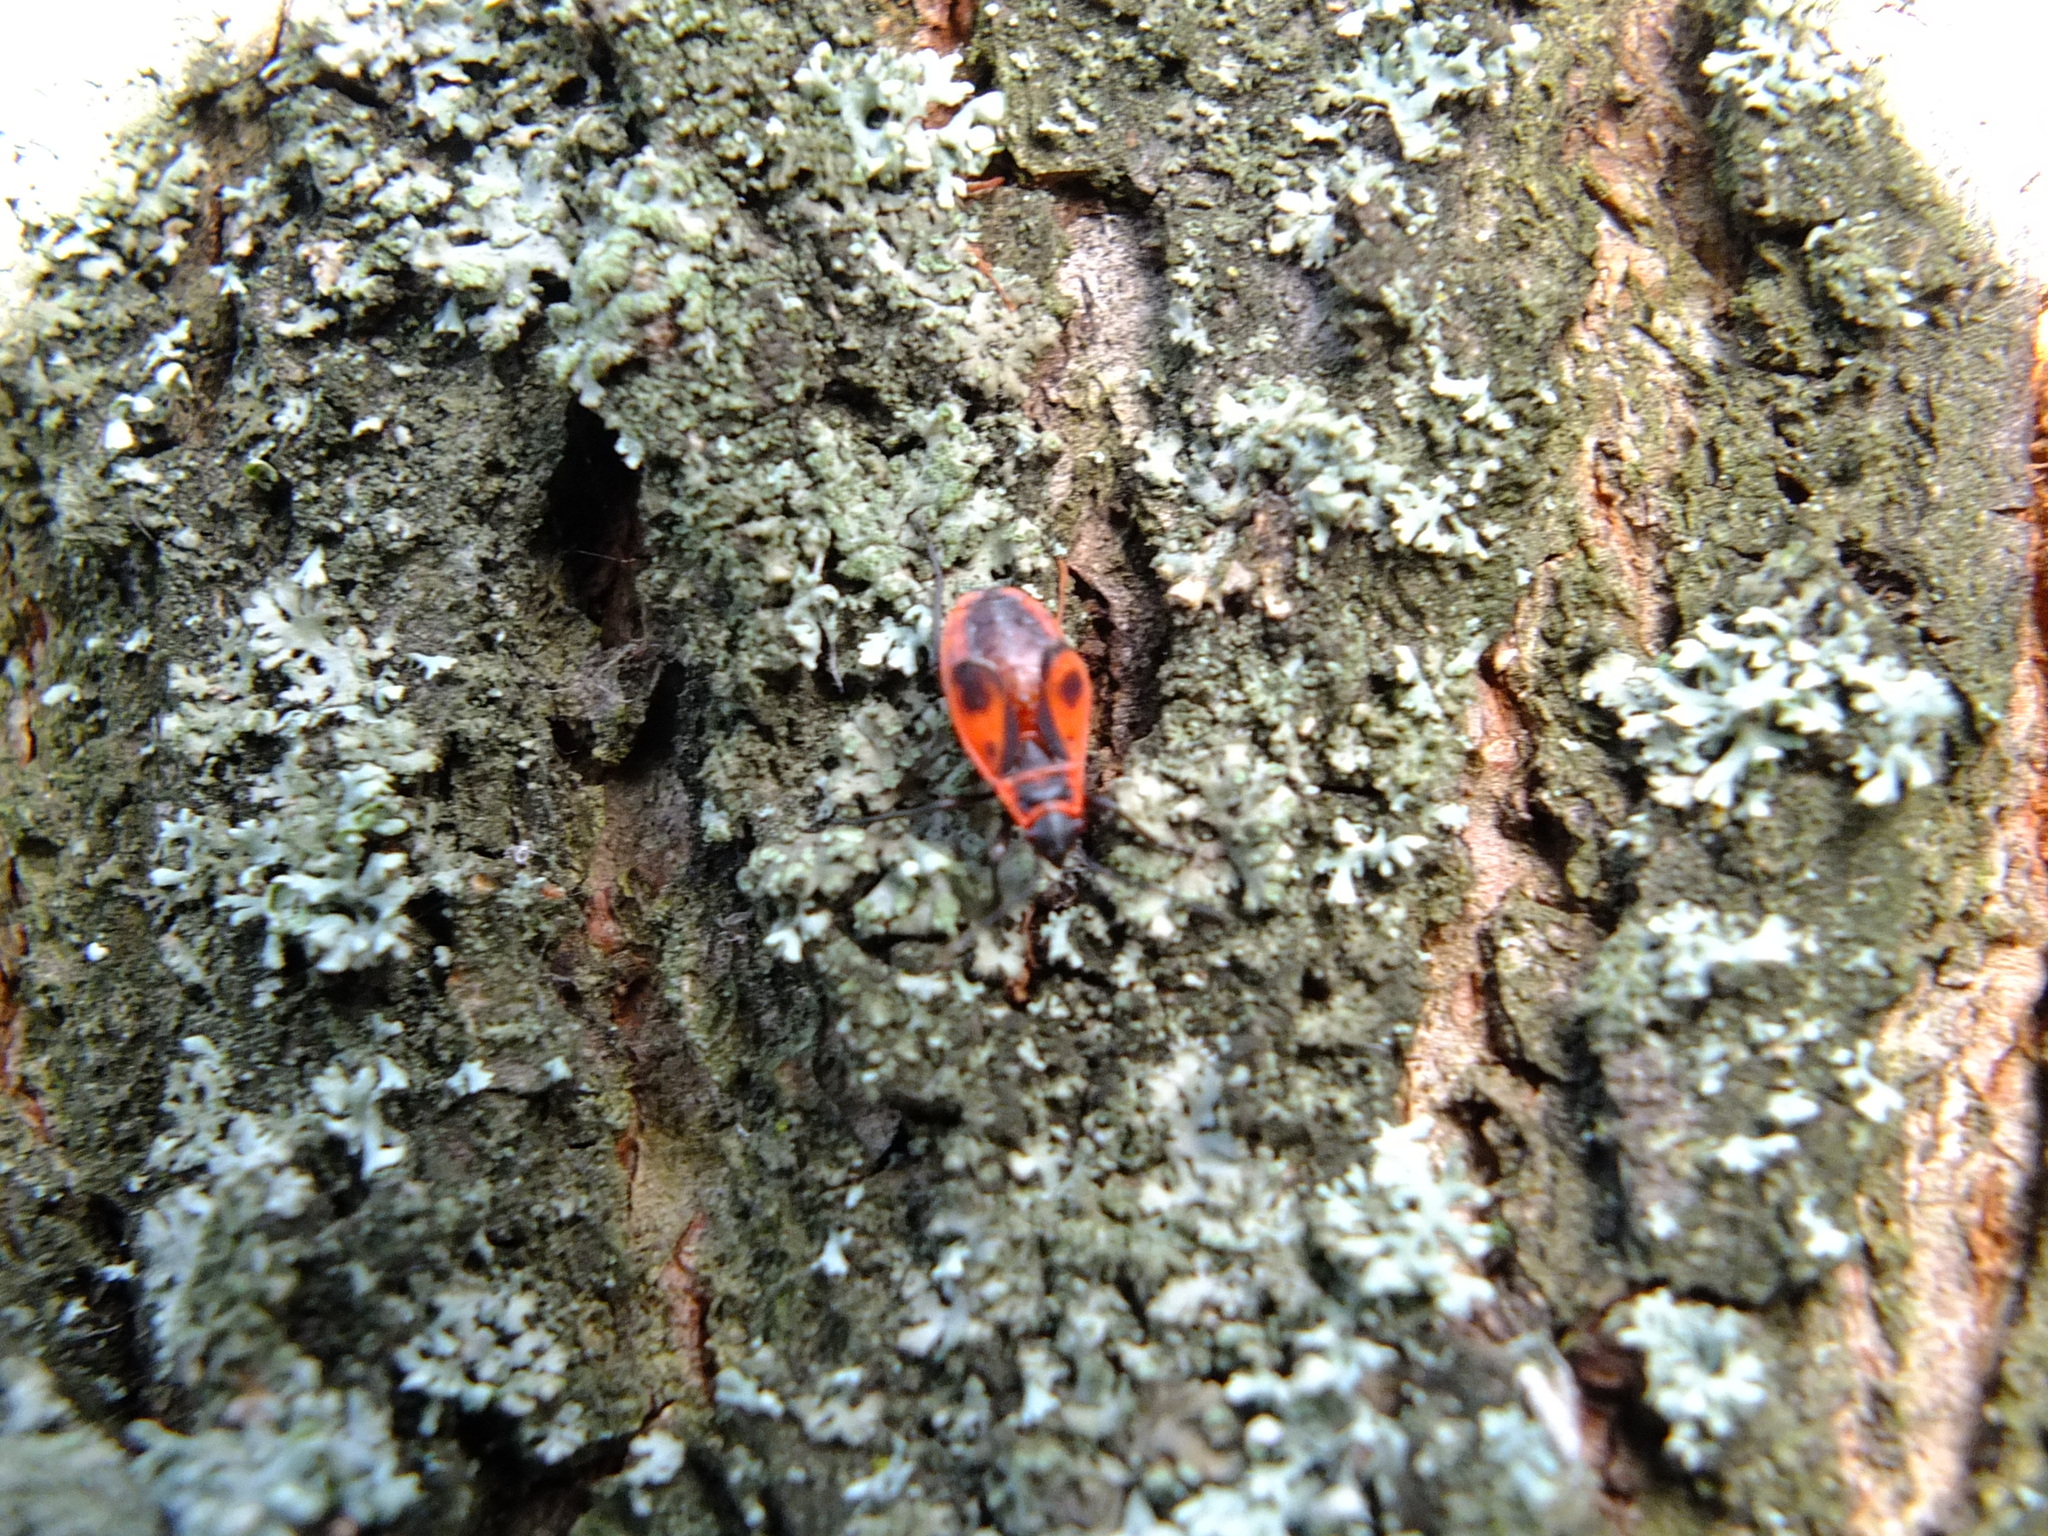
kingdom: Animalia
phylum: Arthropoda
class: Insecta
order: Hemiptera
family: Pyrrhocoridae
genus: Pyrrhocoris
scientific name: Pyrrhocoris apterus
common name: Firebug
